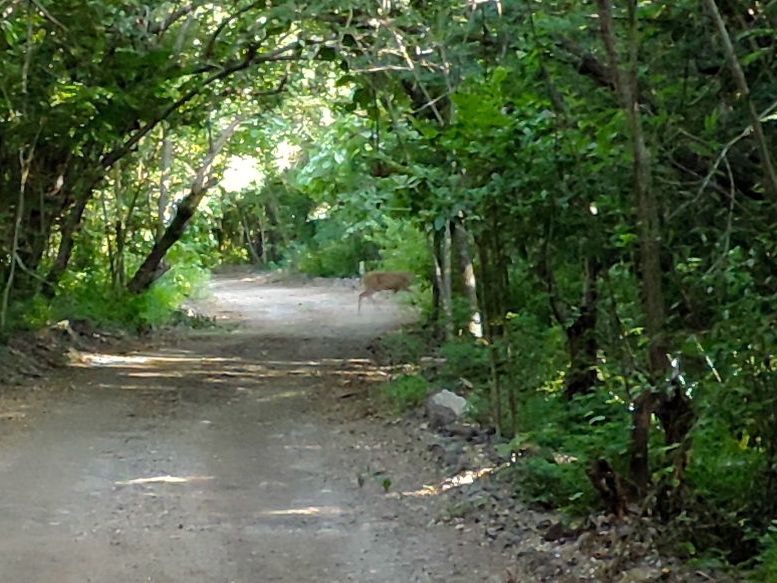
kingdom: Animalia
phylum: Chordata
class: Mammalia
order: Artiodactyla
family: Cervidae
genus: Odocoileus
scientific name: Odocoileus virginianus
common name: White-tailed deer
